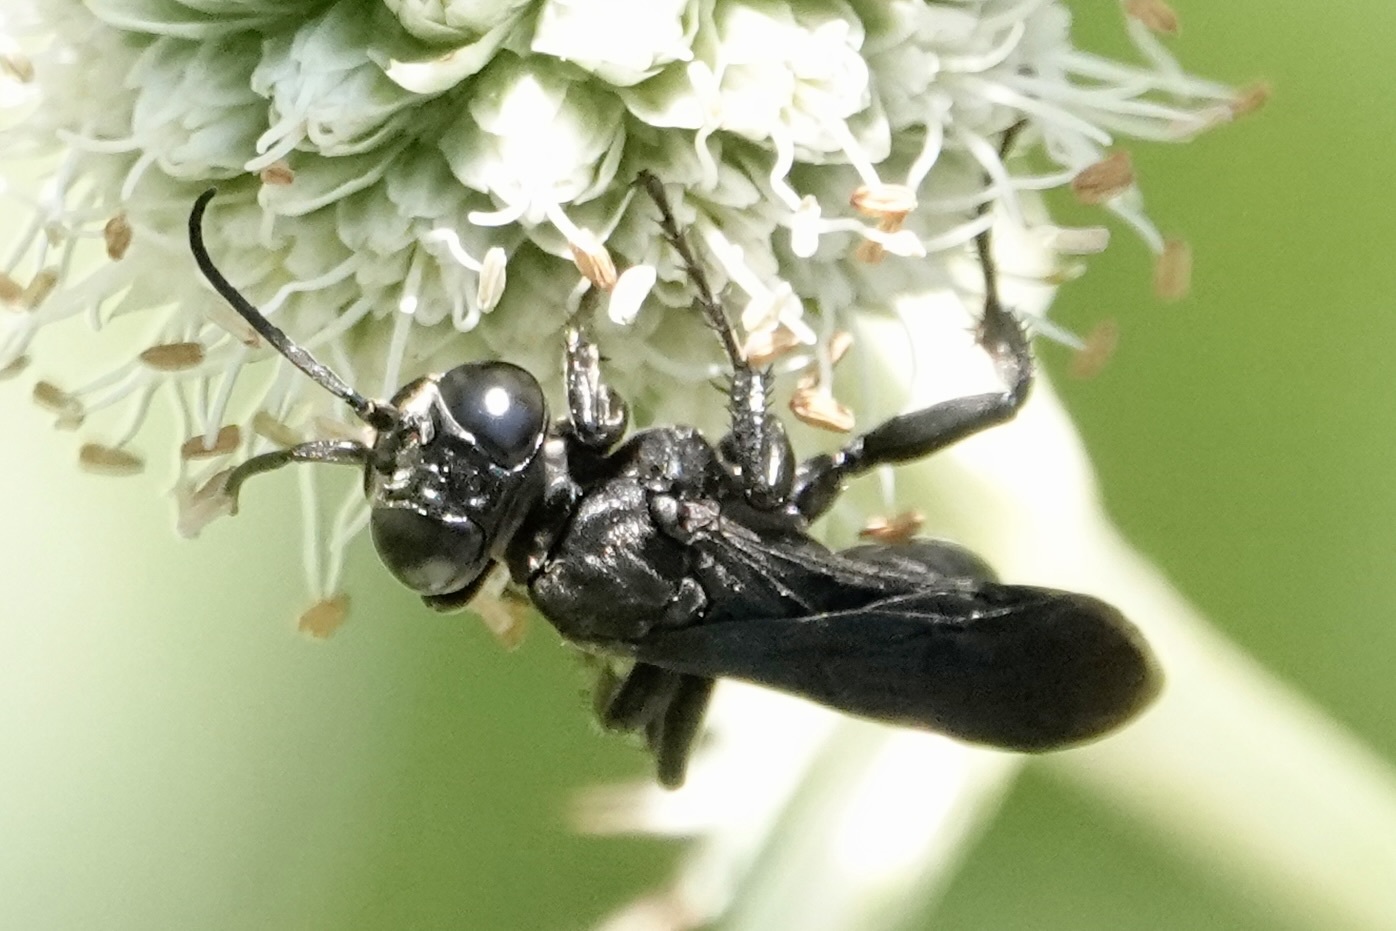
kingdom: Animalia
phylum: Arthropoda
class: Insecta
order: Hymenoptera
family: Crabronidae
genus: Larra
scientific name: Larra analis
